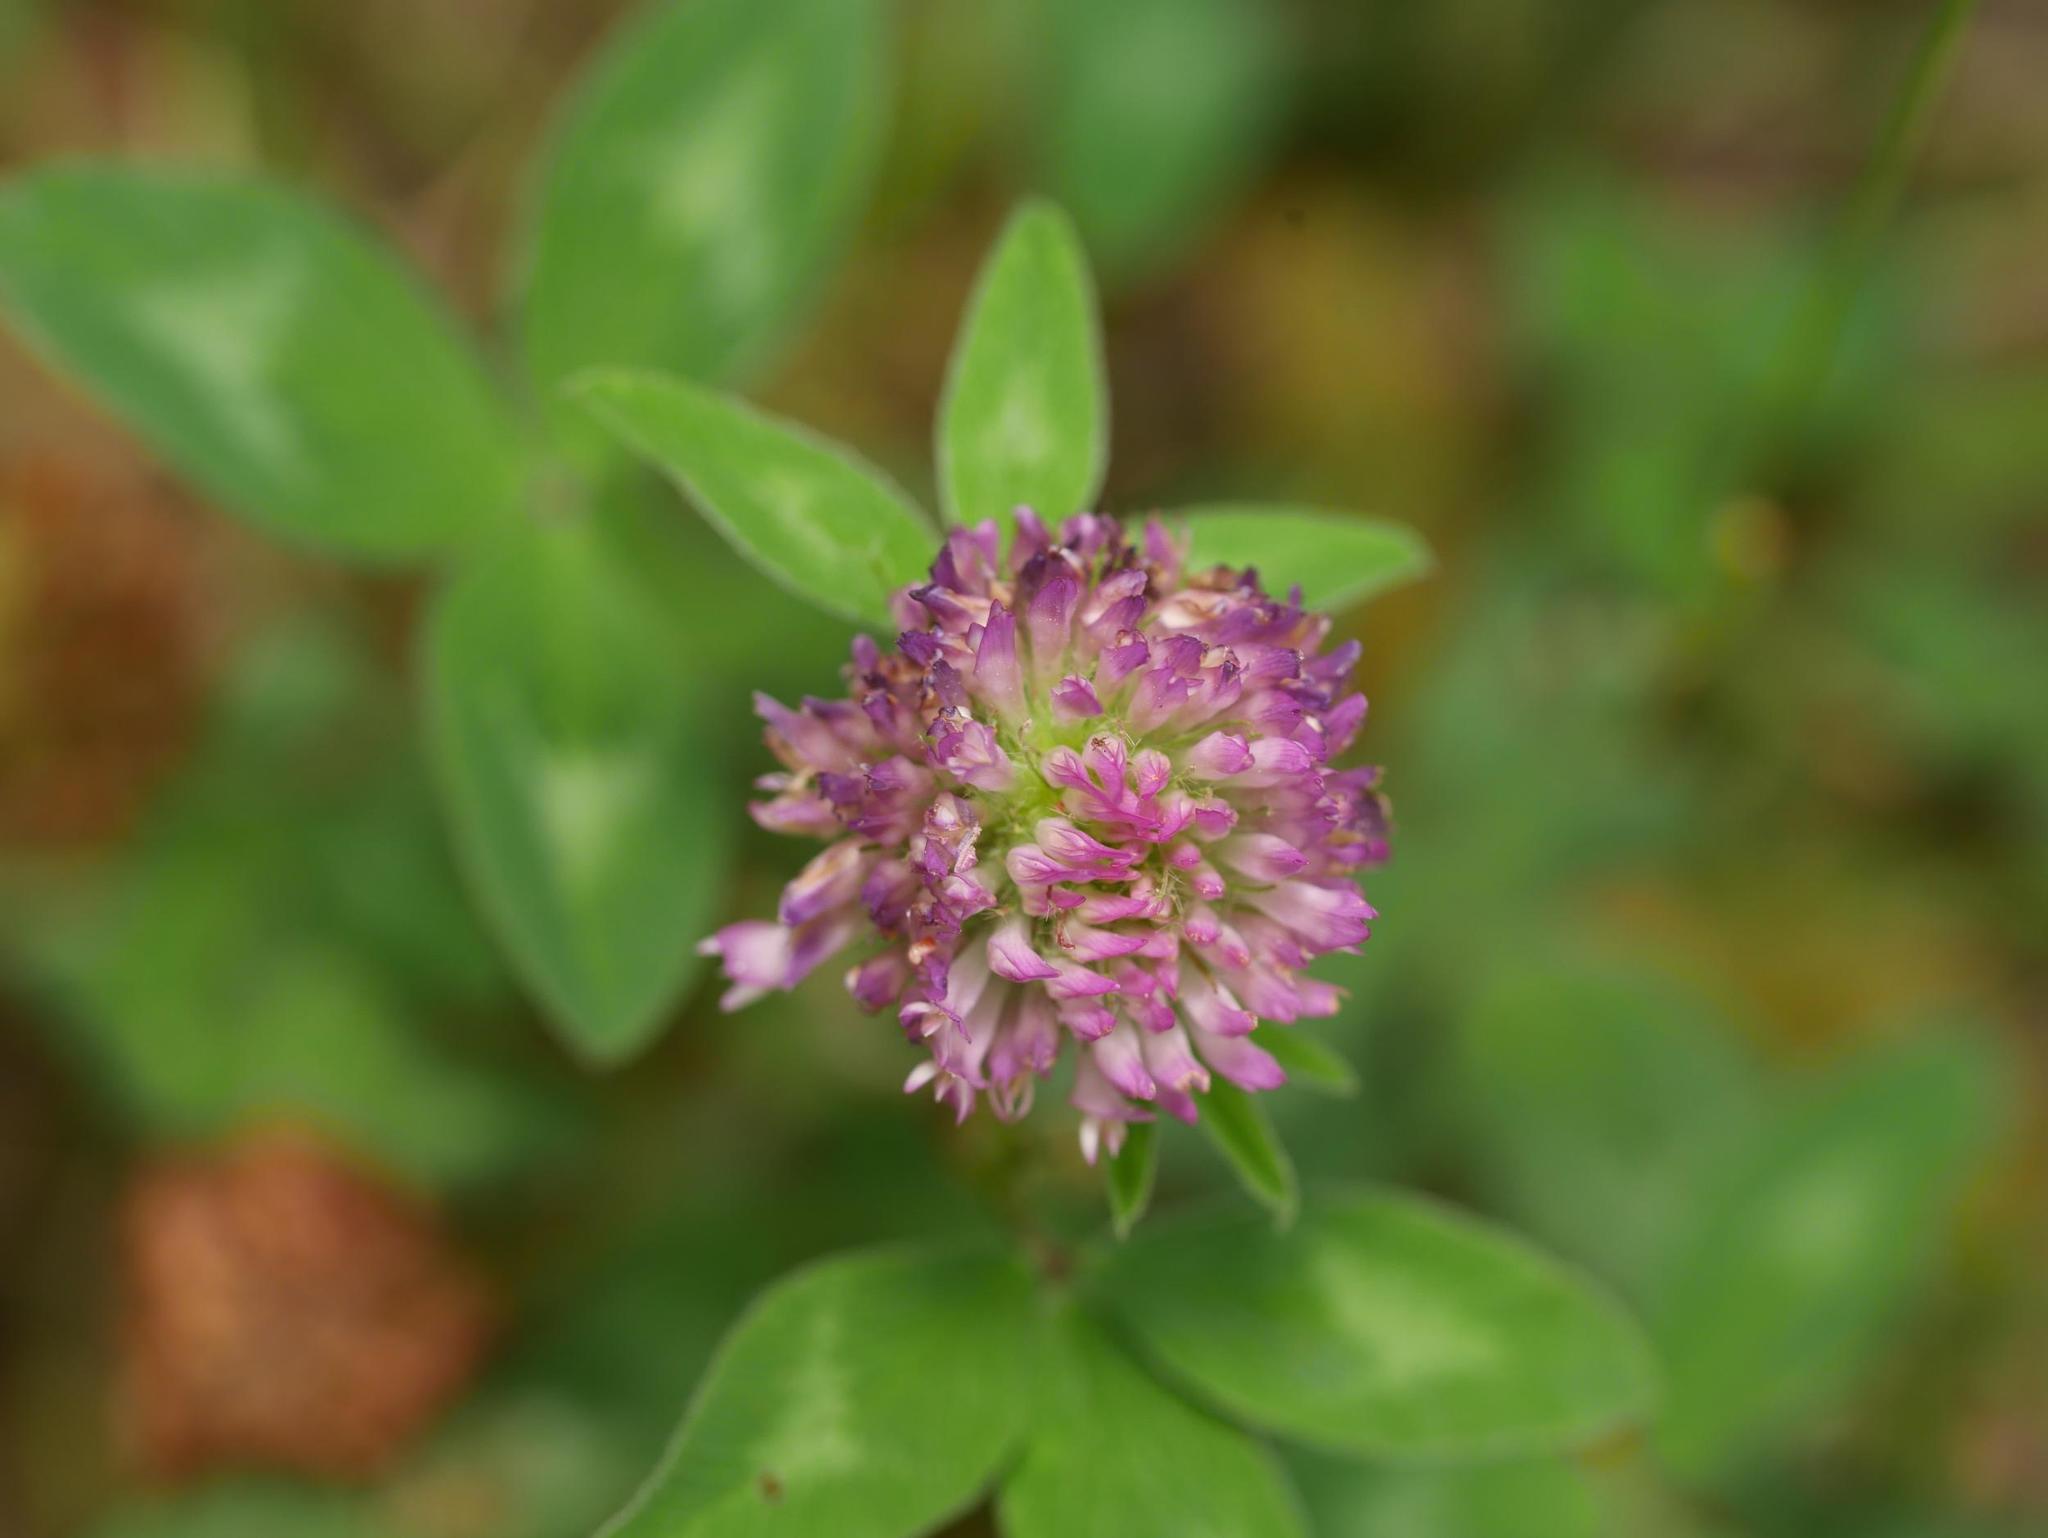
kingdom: Plantae
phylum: Tracheophyta
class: Magnoliopsida
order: Fabales
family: Fabaceae
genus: Trifolium
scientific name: Trifolium pratense
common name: Red clover
